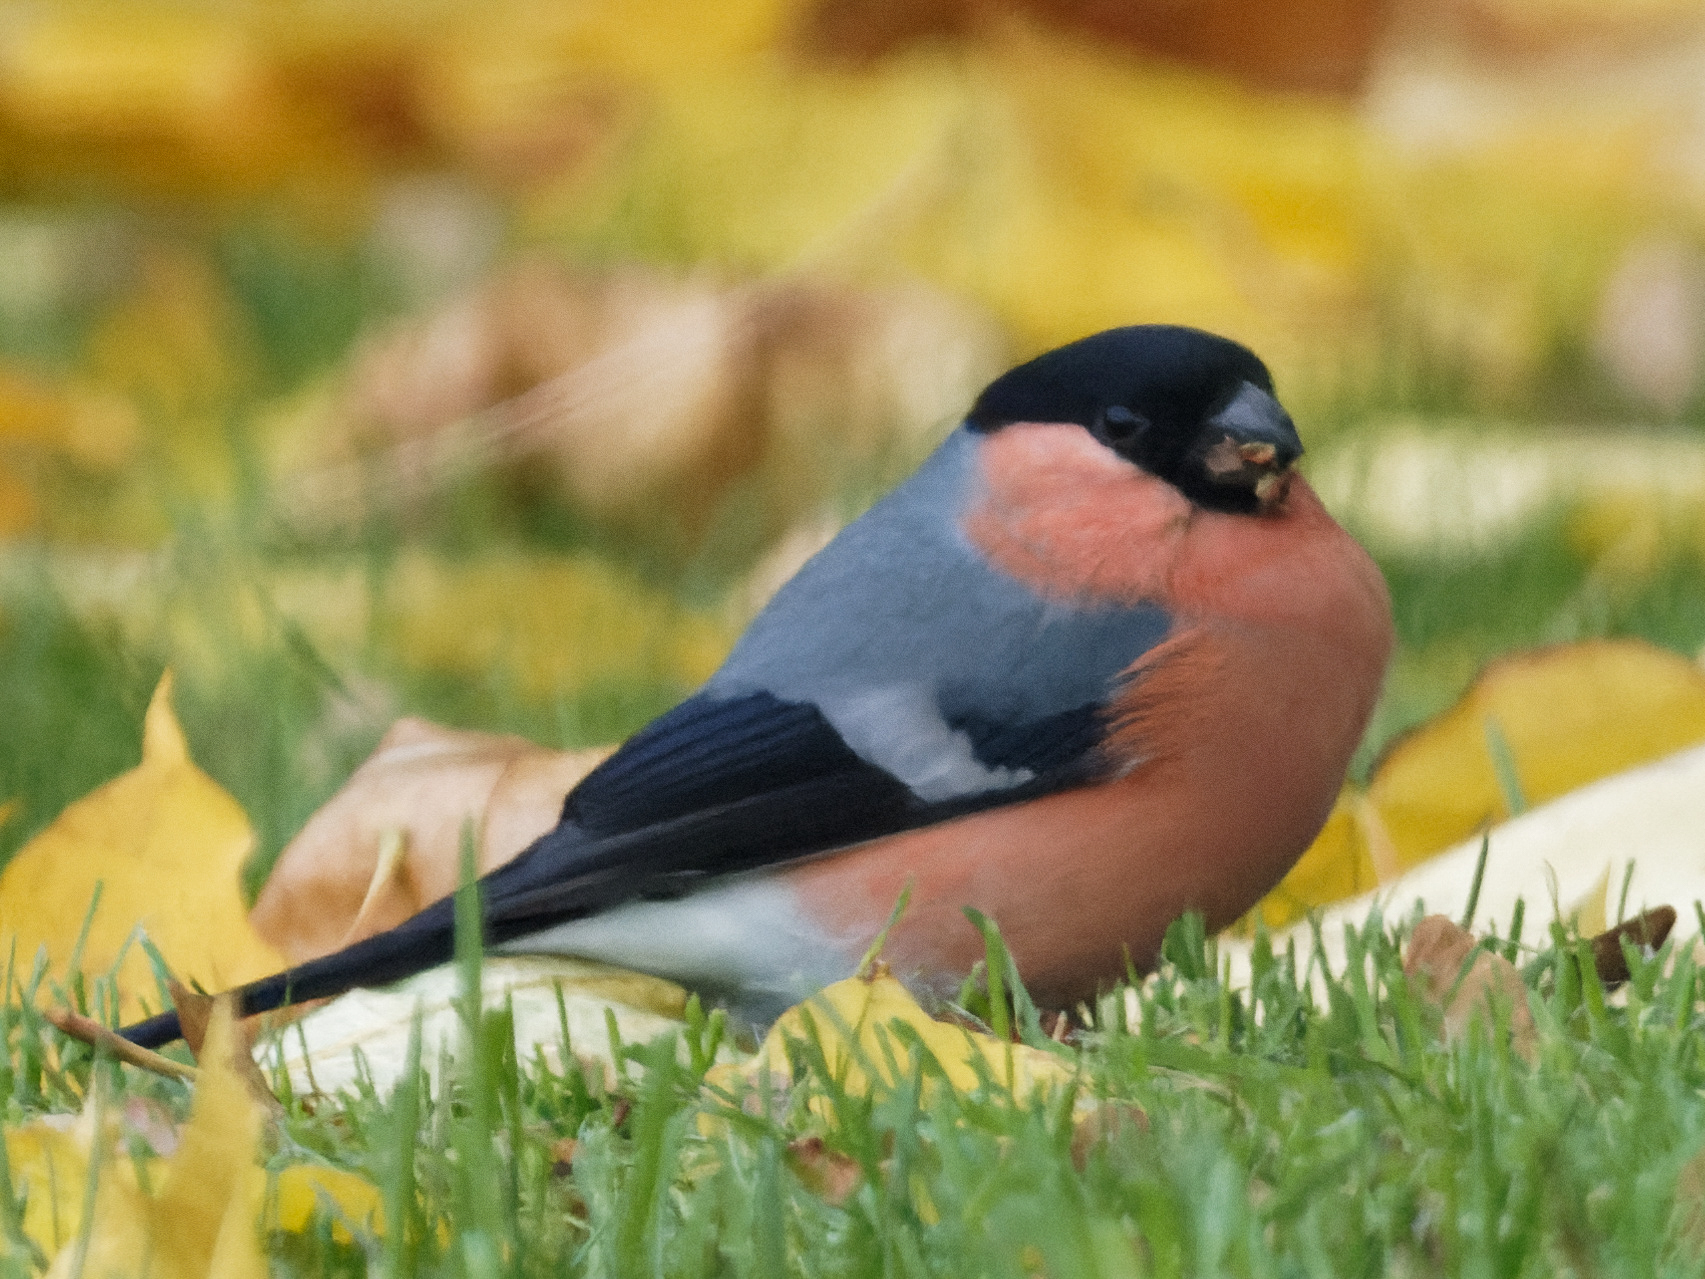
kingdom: Animalia
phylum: Chordata
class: Aves
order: Passeriformes
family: Fringillidae
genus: Pyrrhula
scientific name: Pyrrhula pyrrhula
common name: Eurasian bullfinch
